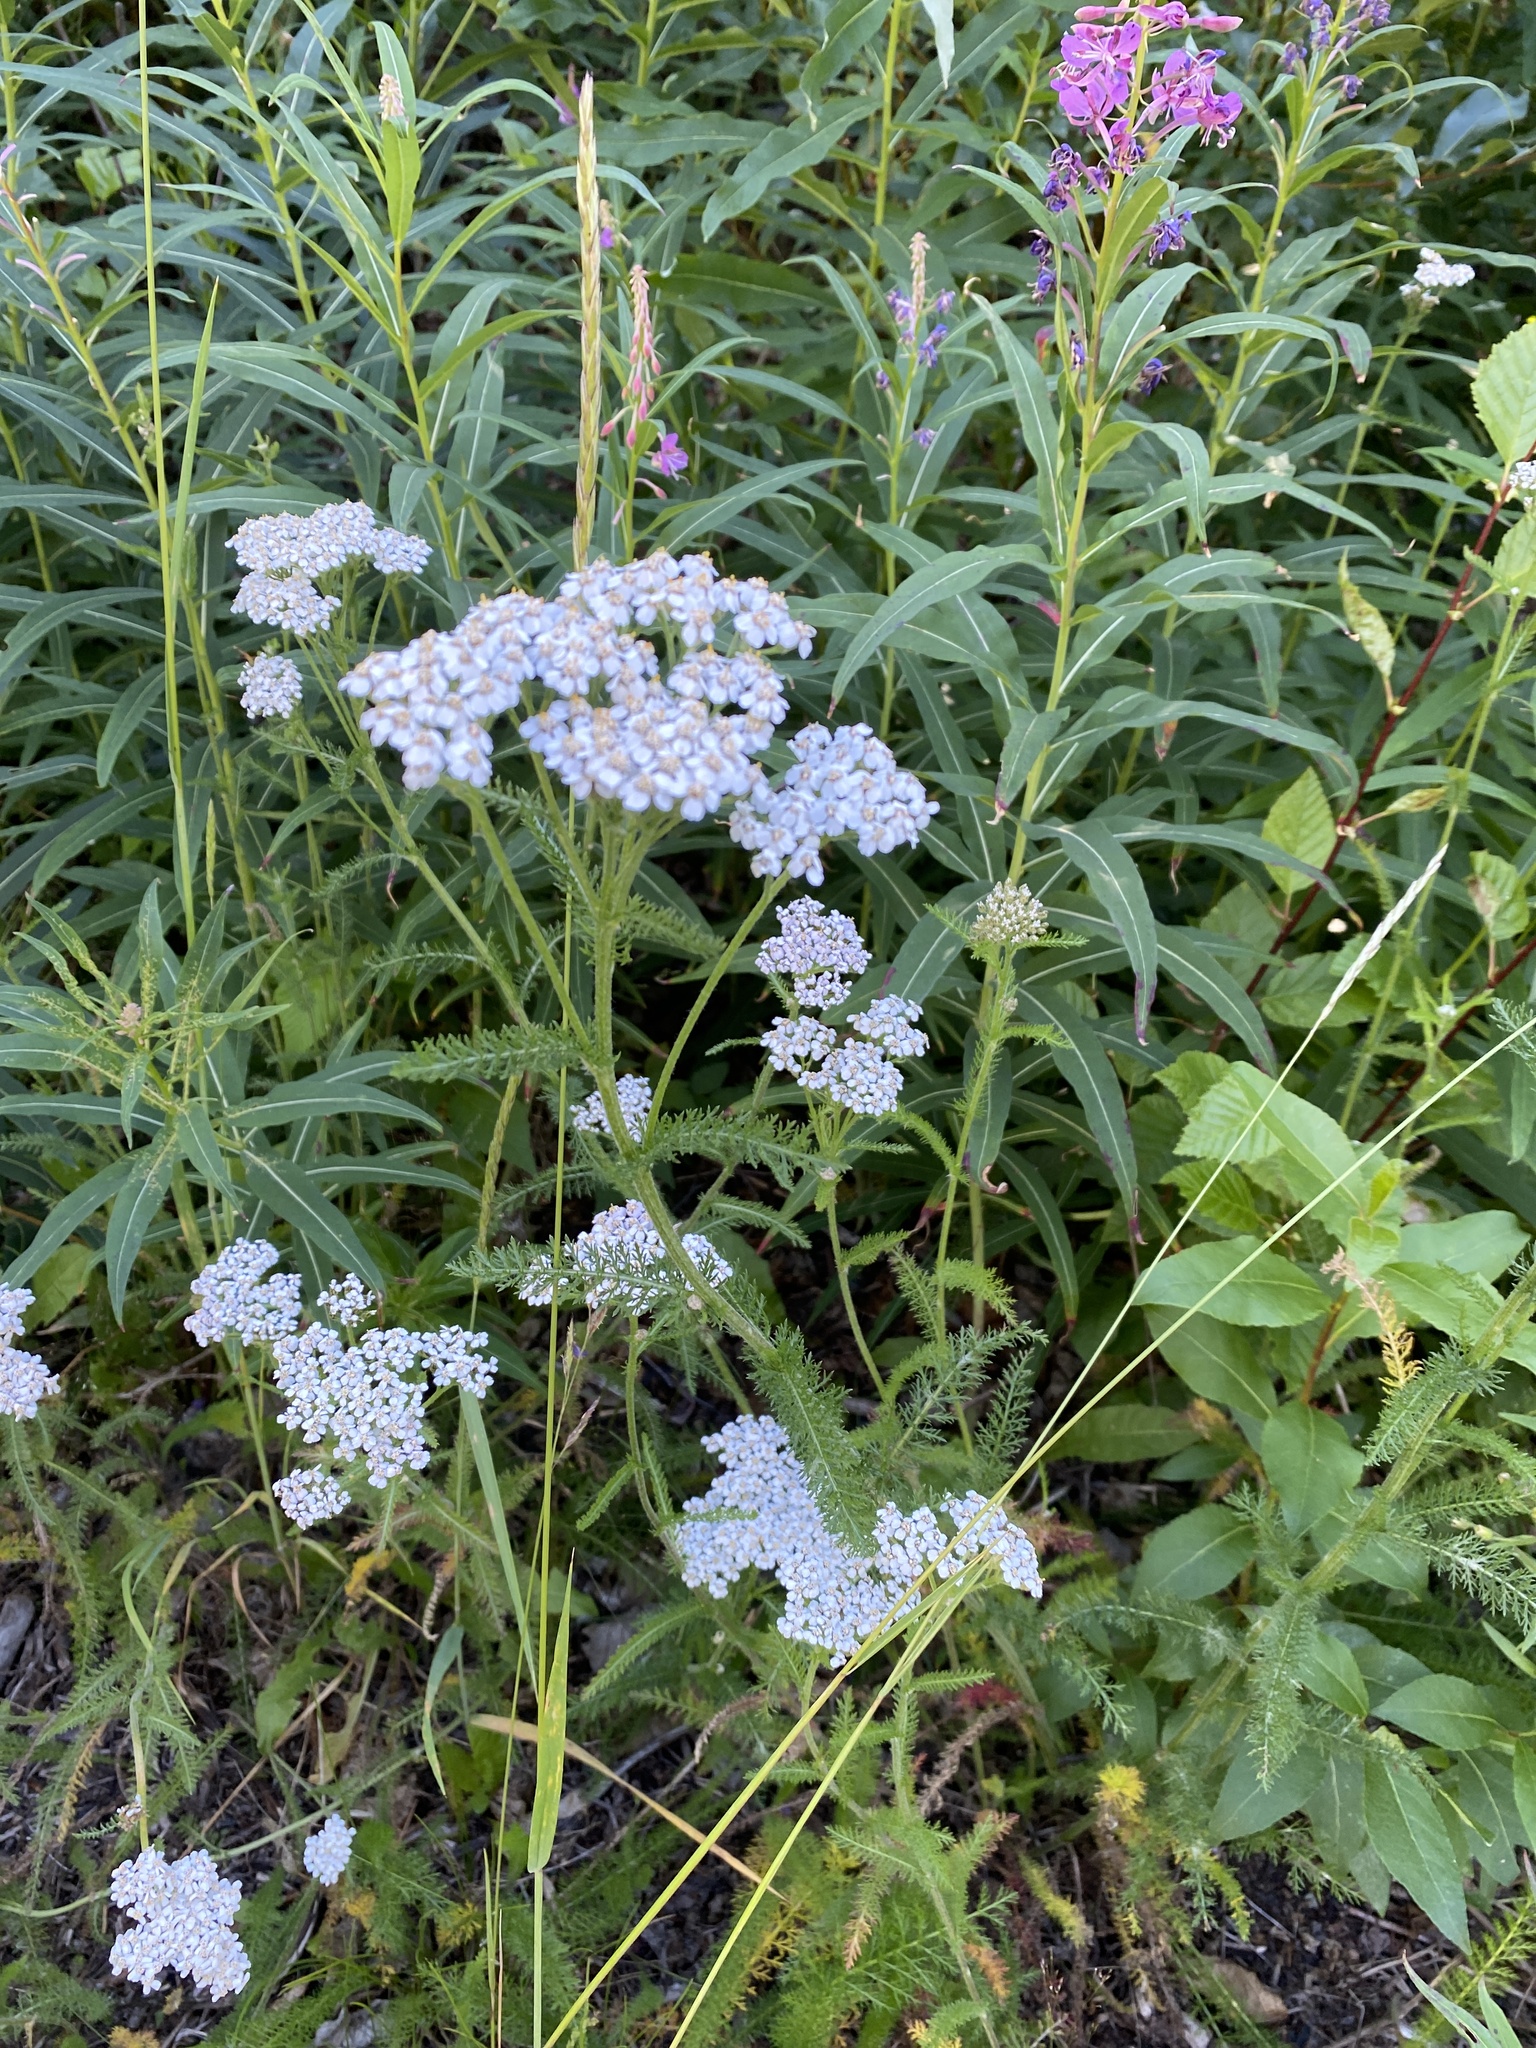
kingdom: Plantae
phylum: Tracheophyta
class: Magnoliopsida
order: Asterales
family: Asteraceae
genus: Achillea
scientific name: Achillea millefolium
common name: Yarrow
